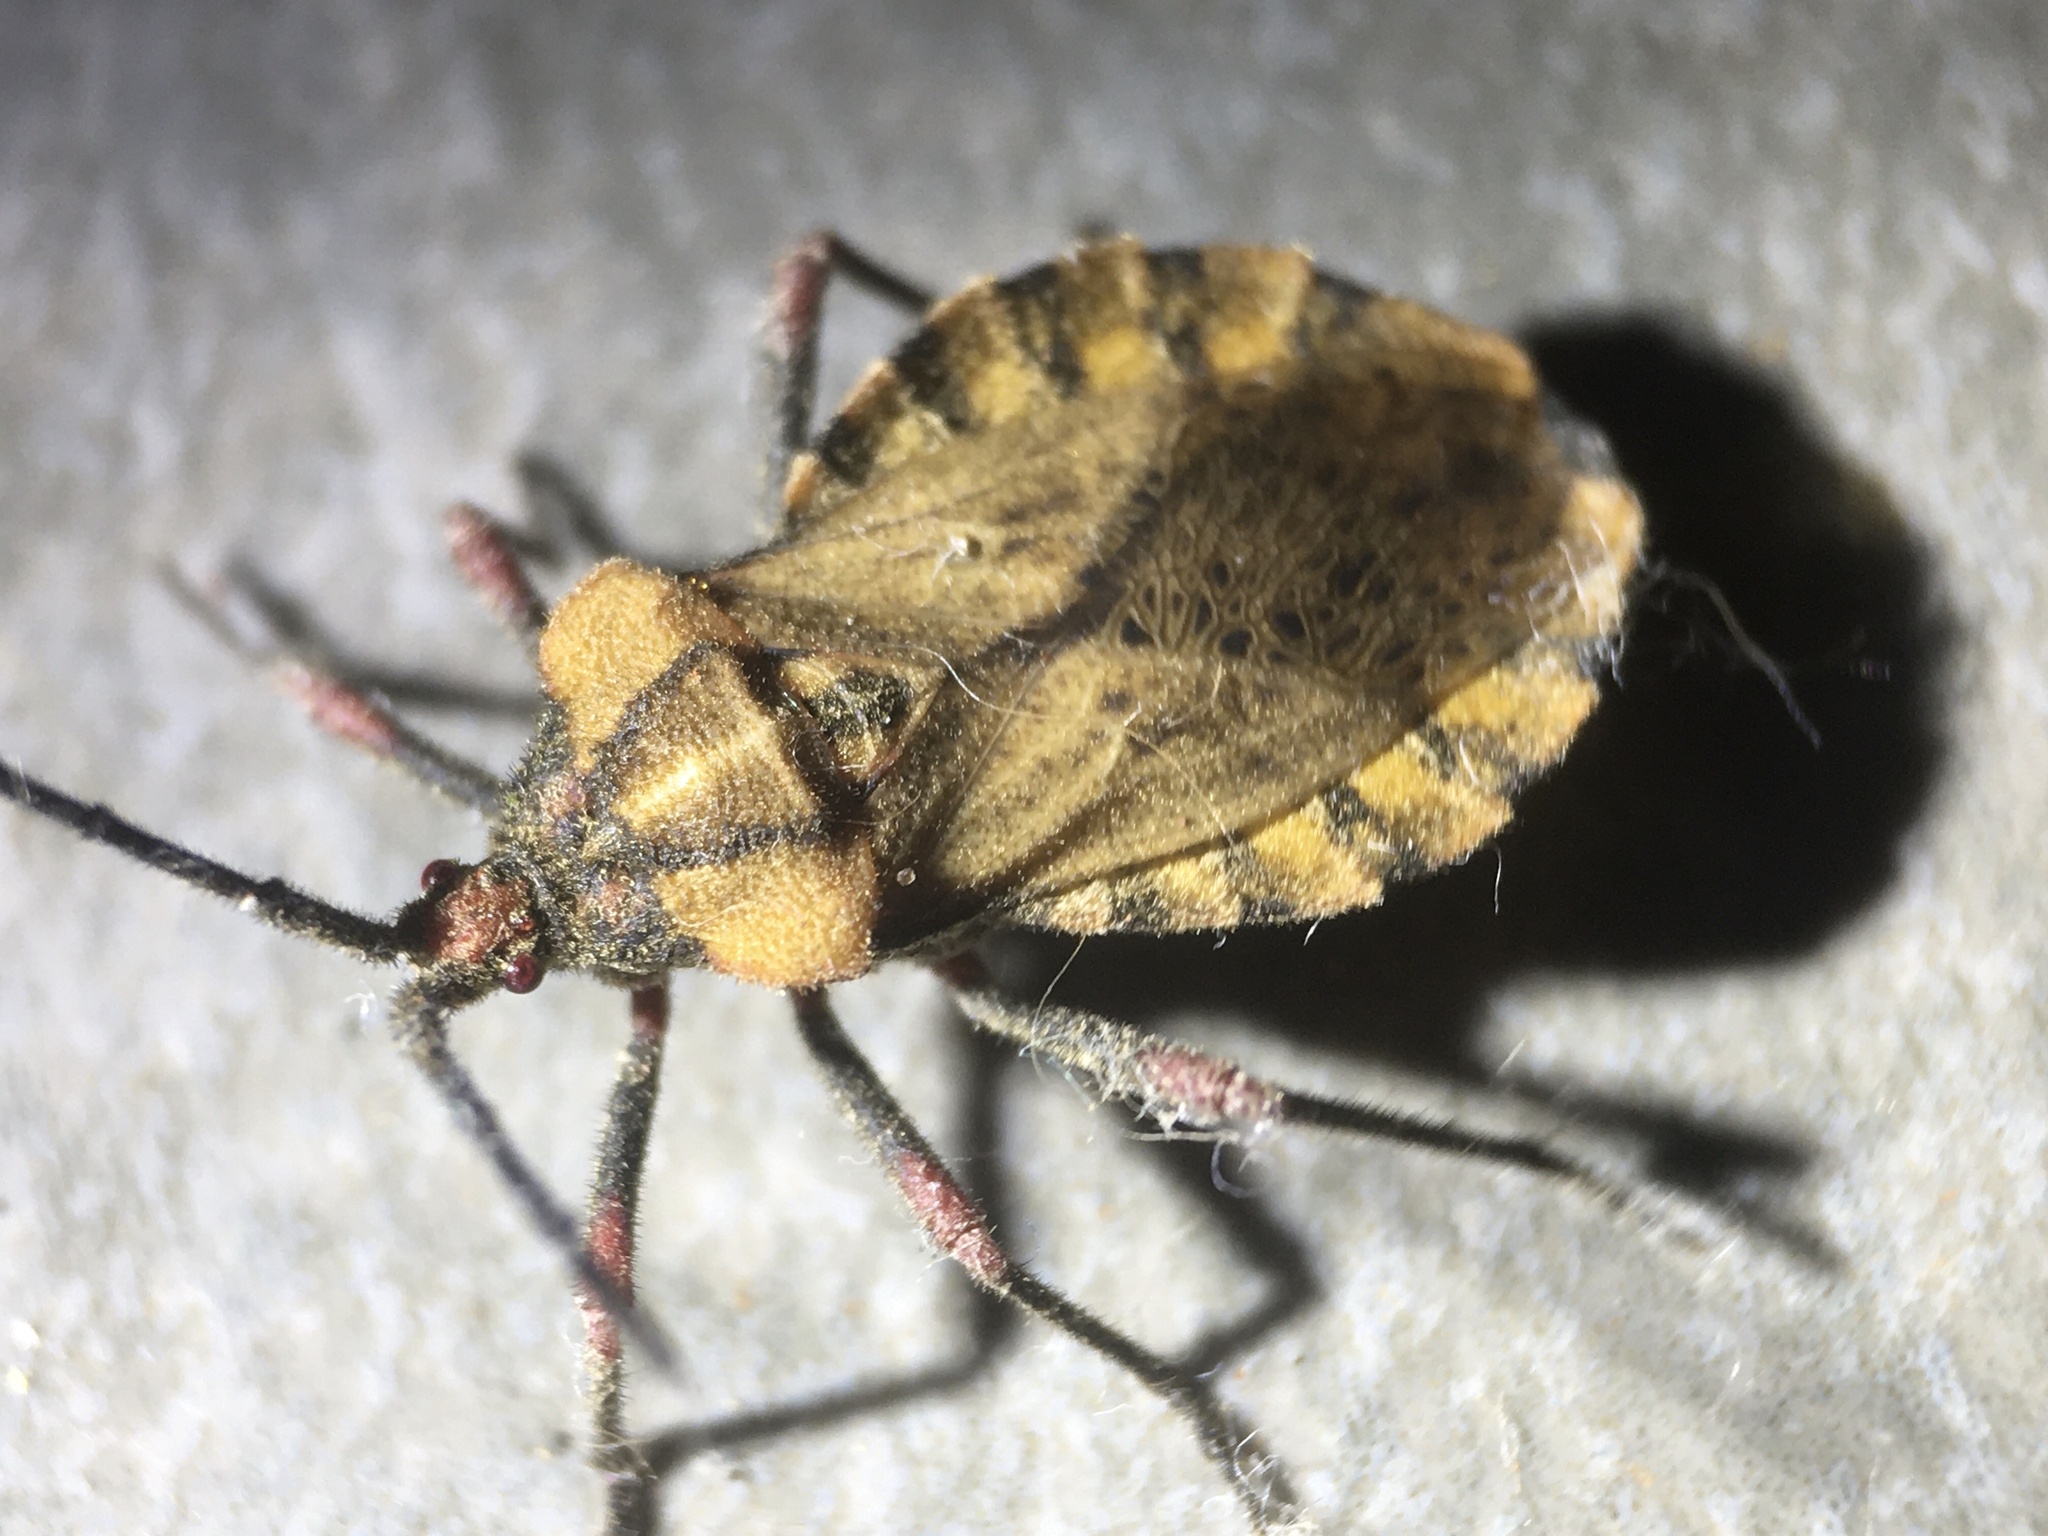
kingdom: Animalia
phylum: Arthropoda
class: Insecta
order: Hemiptera
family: Coreidae
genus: Spartocera
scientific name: Spartocera fusca
